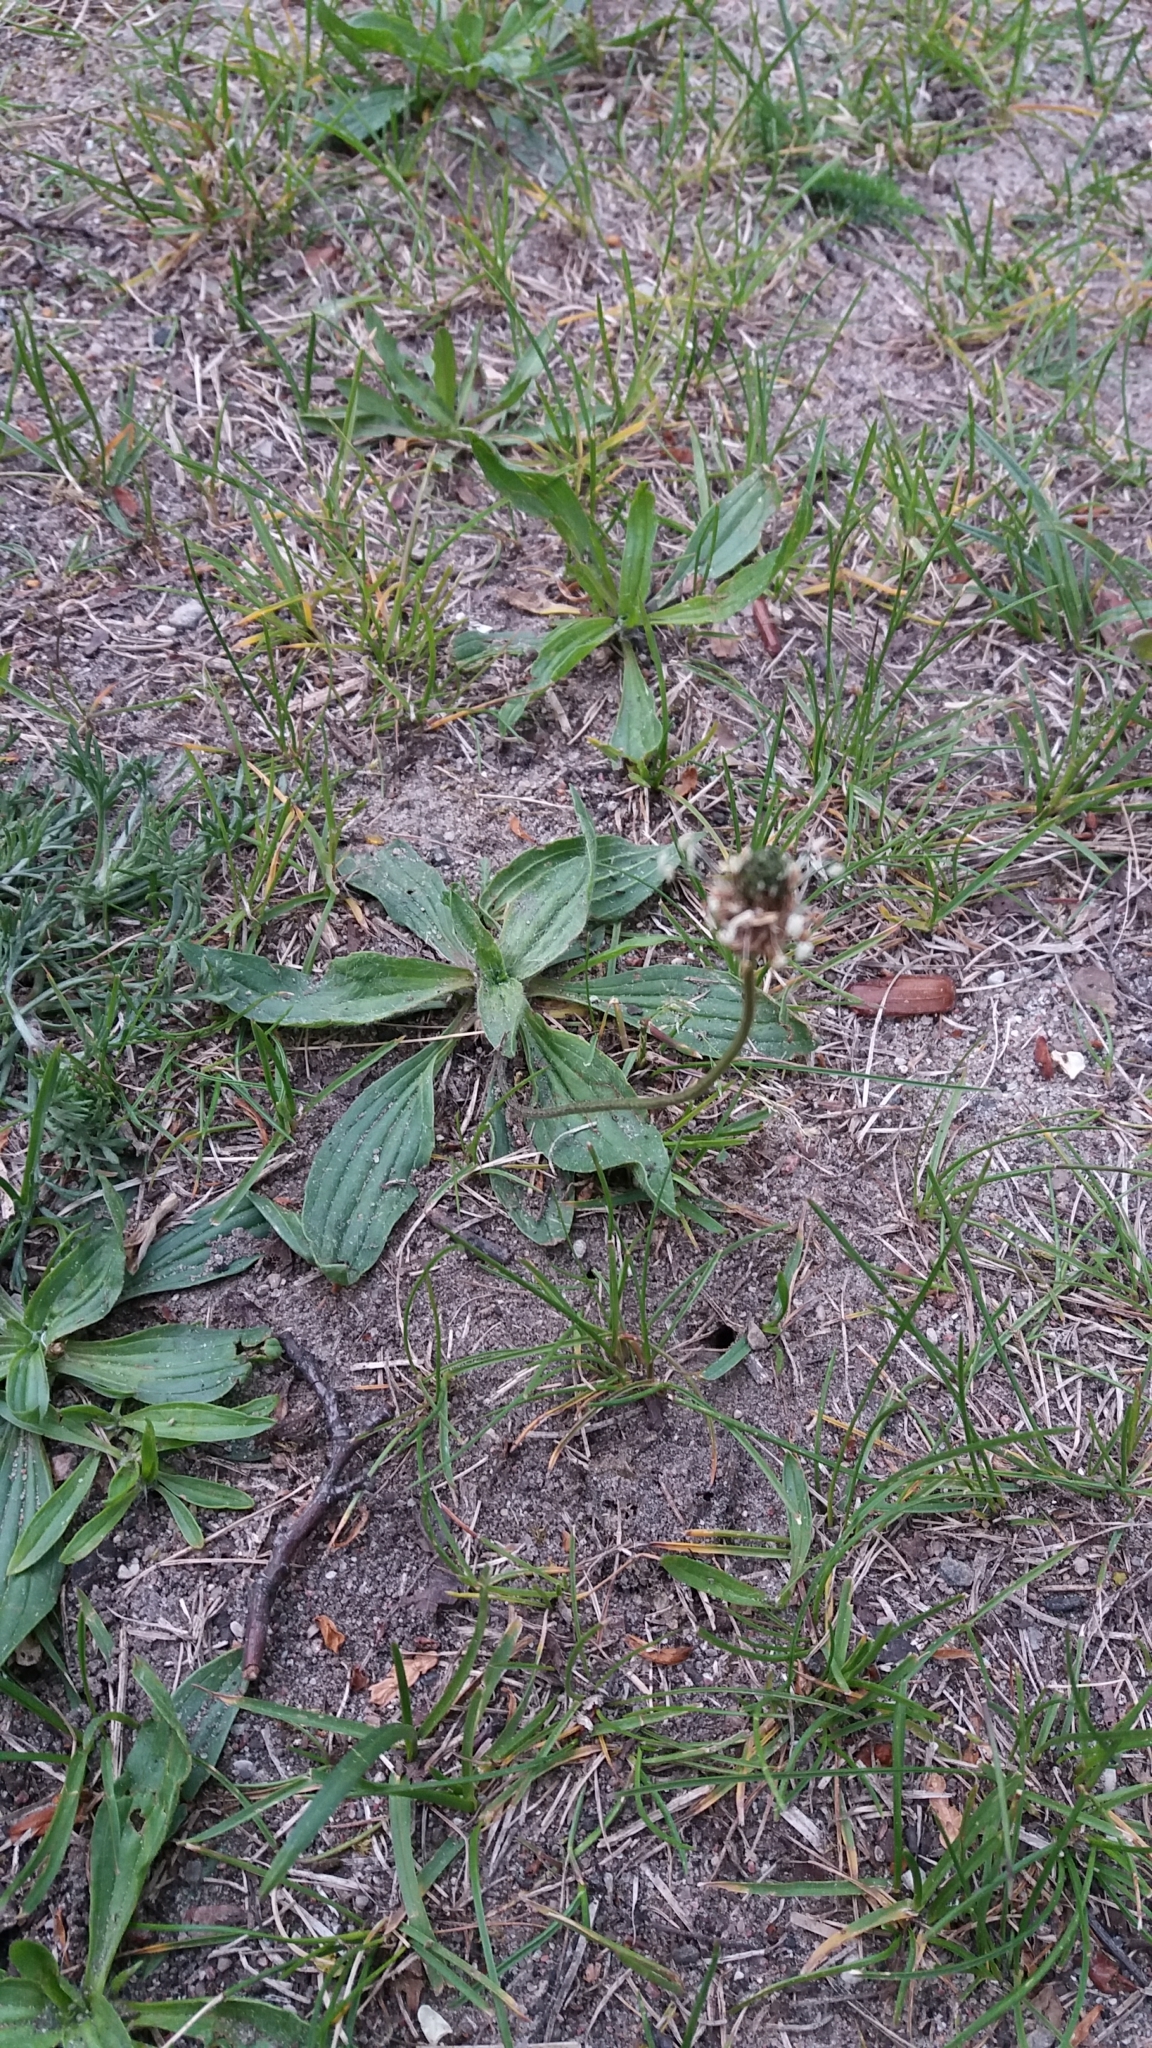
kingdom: Plantae
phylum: Tracheophyta
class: Magnoliopsida
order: Lamiales
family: Plantaginaceae
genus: Plantago
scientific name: Plantago lanceolata
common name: Ribwort plantain
